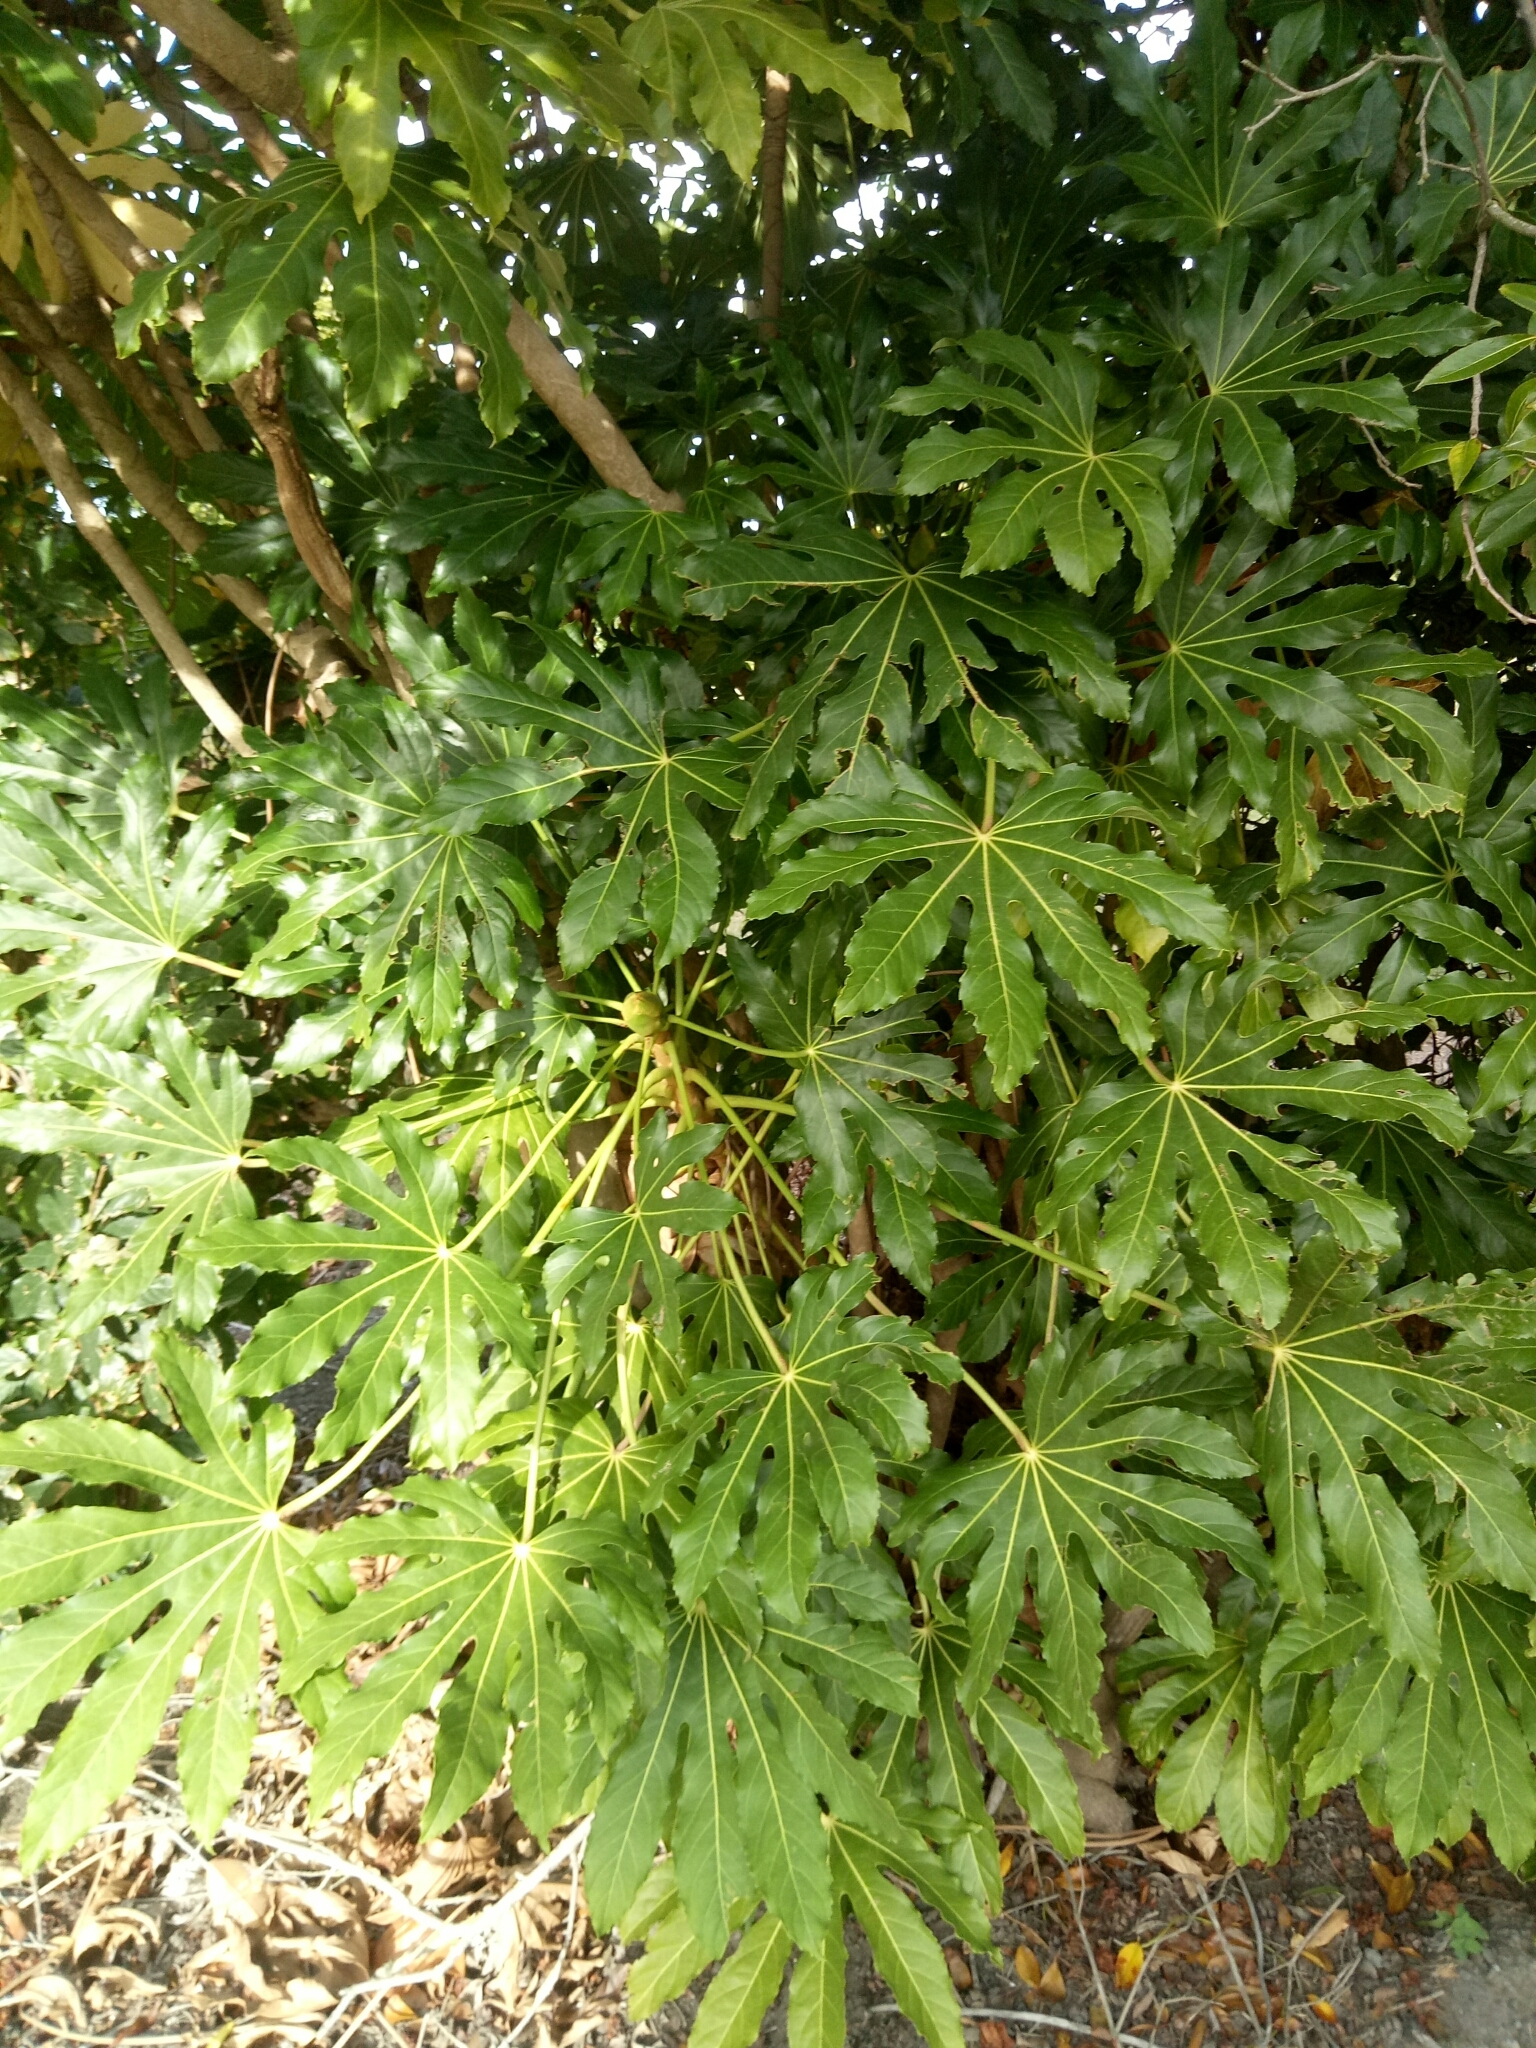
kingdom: Plantae
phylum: Tracheophyta
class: Magnoliopsida
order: Apiales
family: Araliaceae
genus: Fatsia
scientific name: Fatsia japonica
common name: Fatsia
